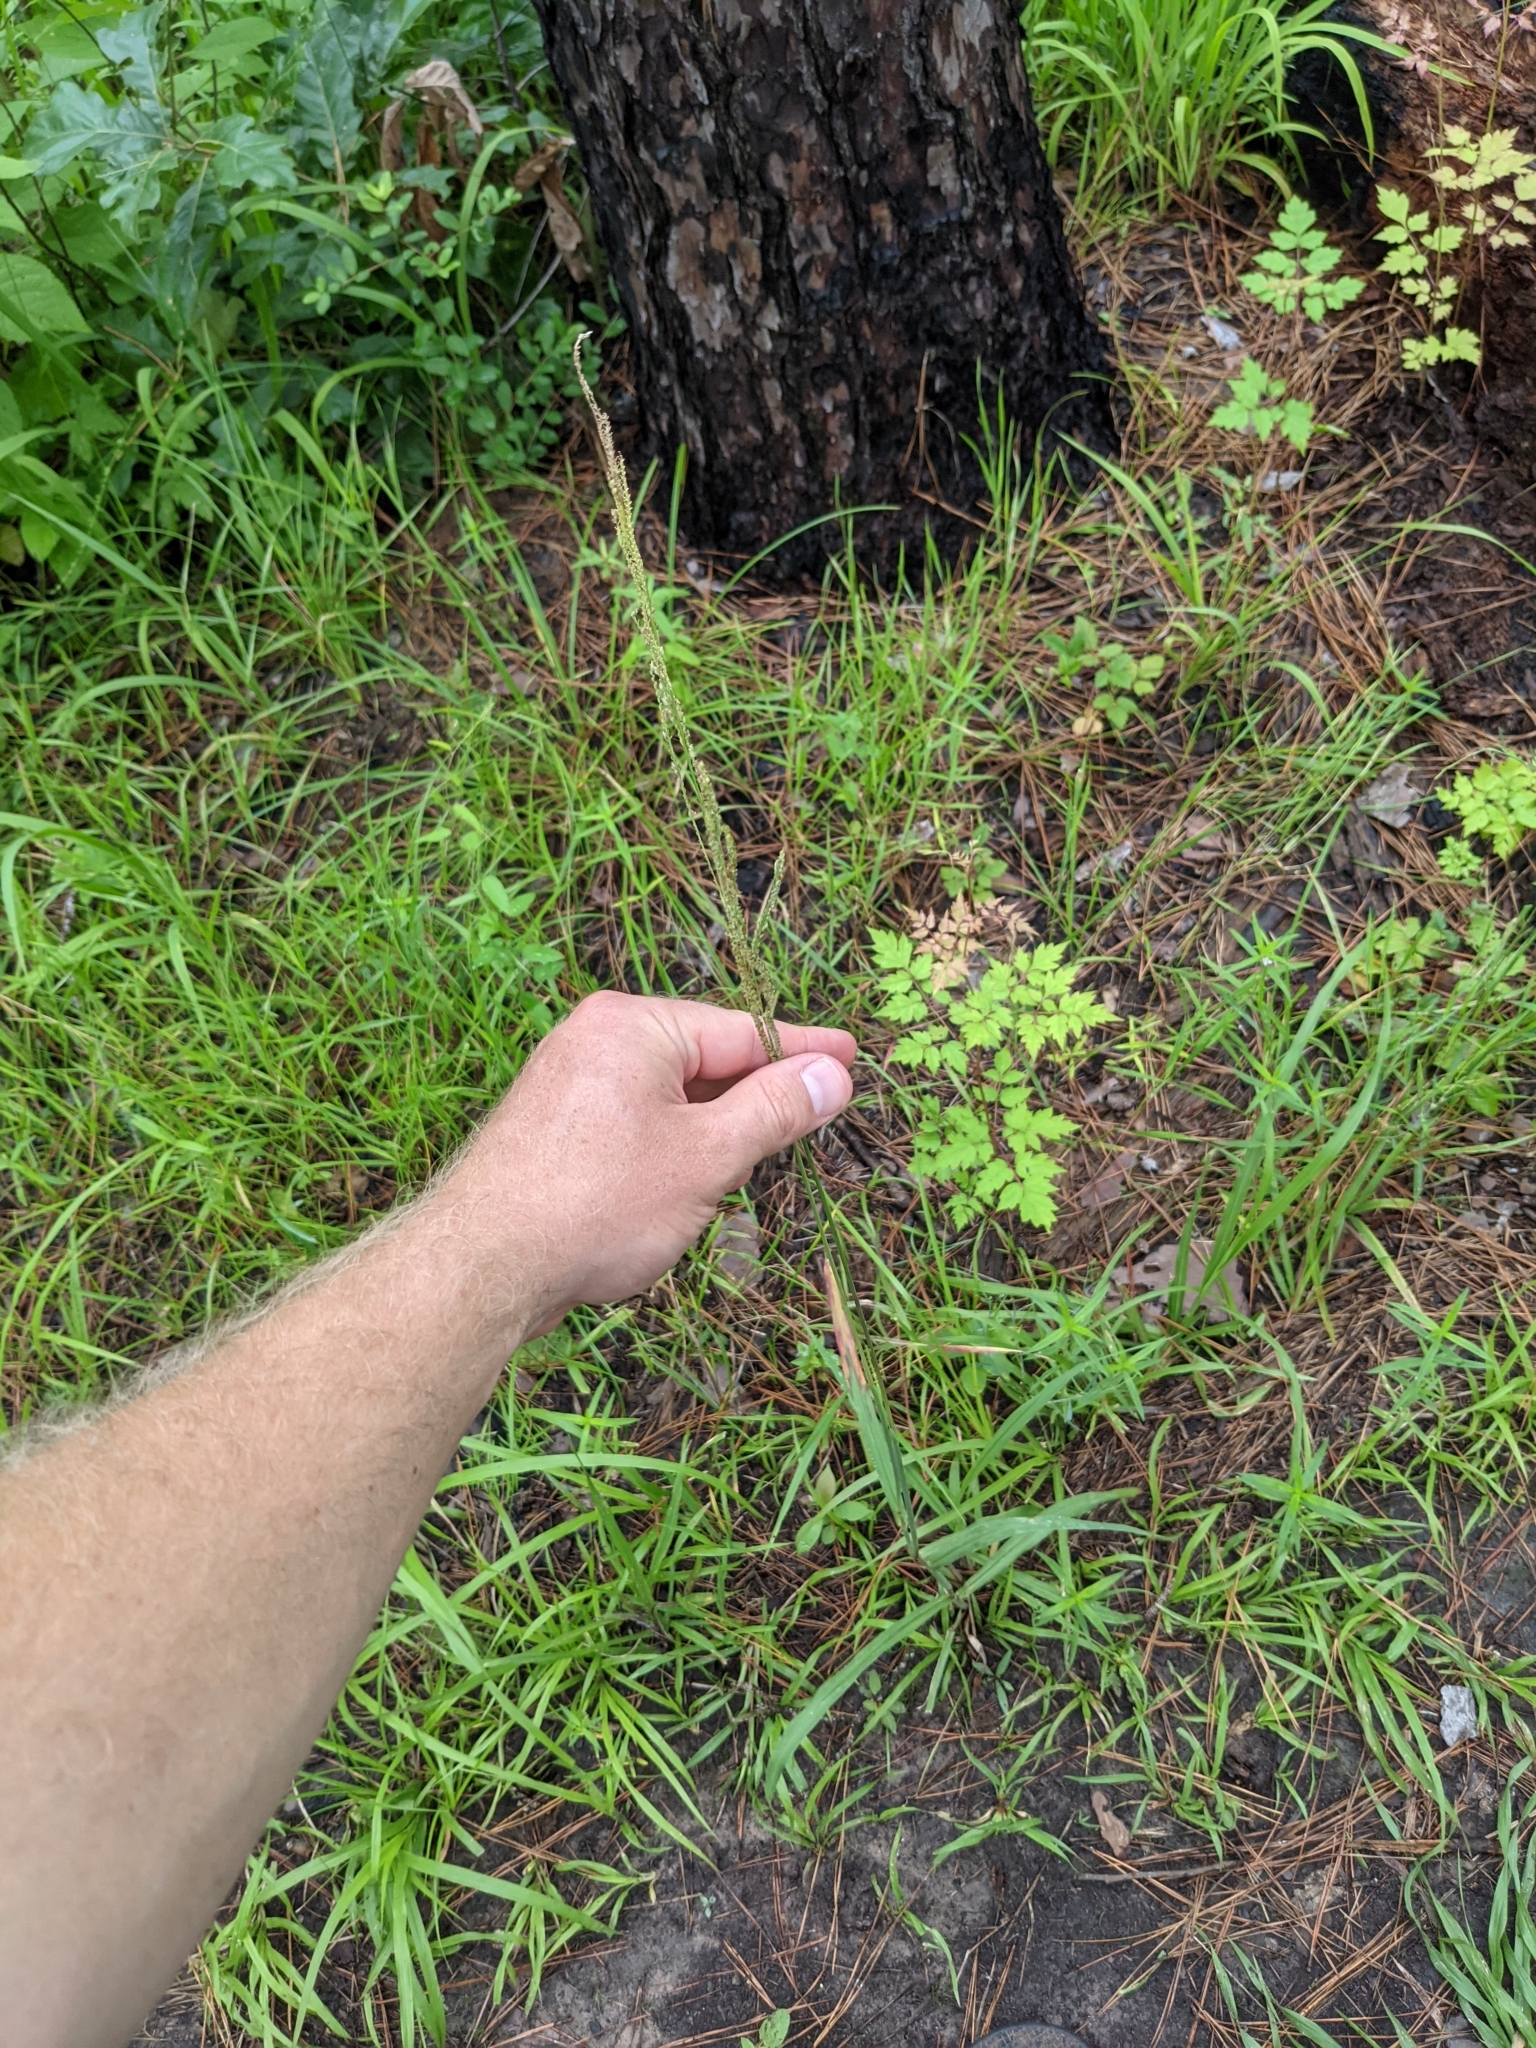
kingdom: Plantae
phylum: Tracheophyta
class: Liliopsida
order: Poales
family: Poaceae
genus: Paspalum
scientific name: Paspalum urvillei
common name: Vasey's grass
